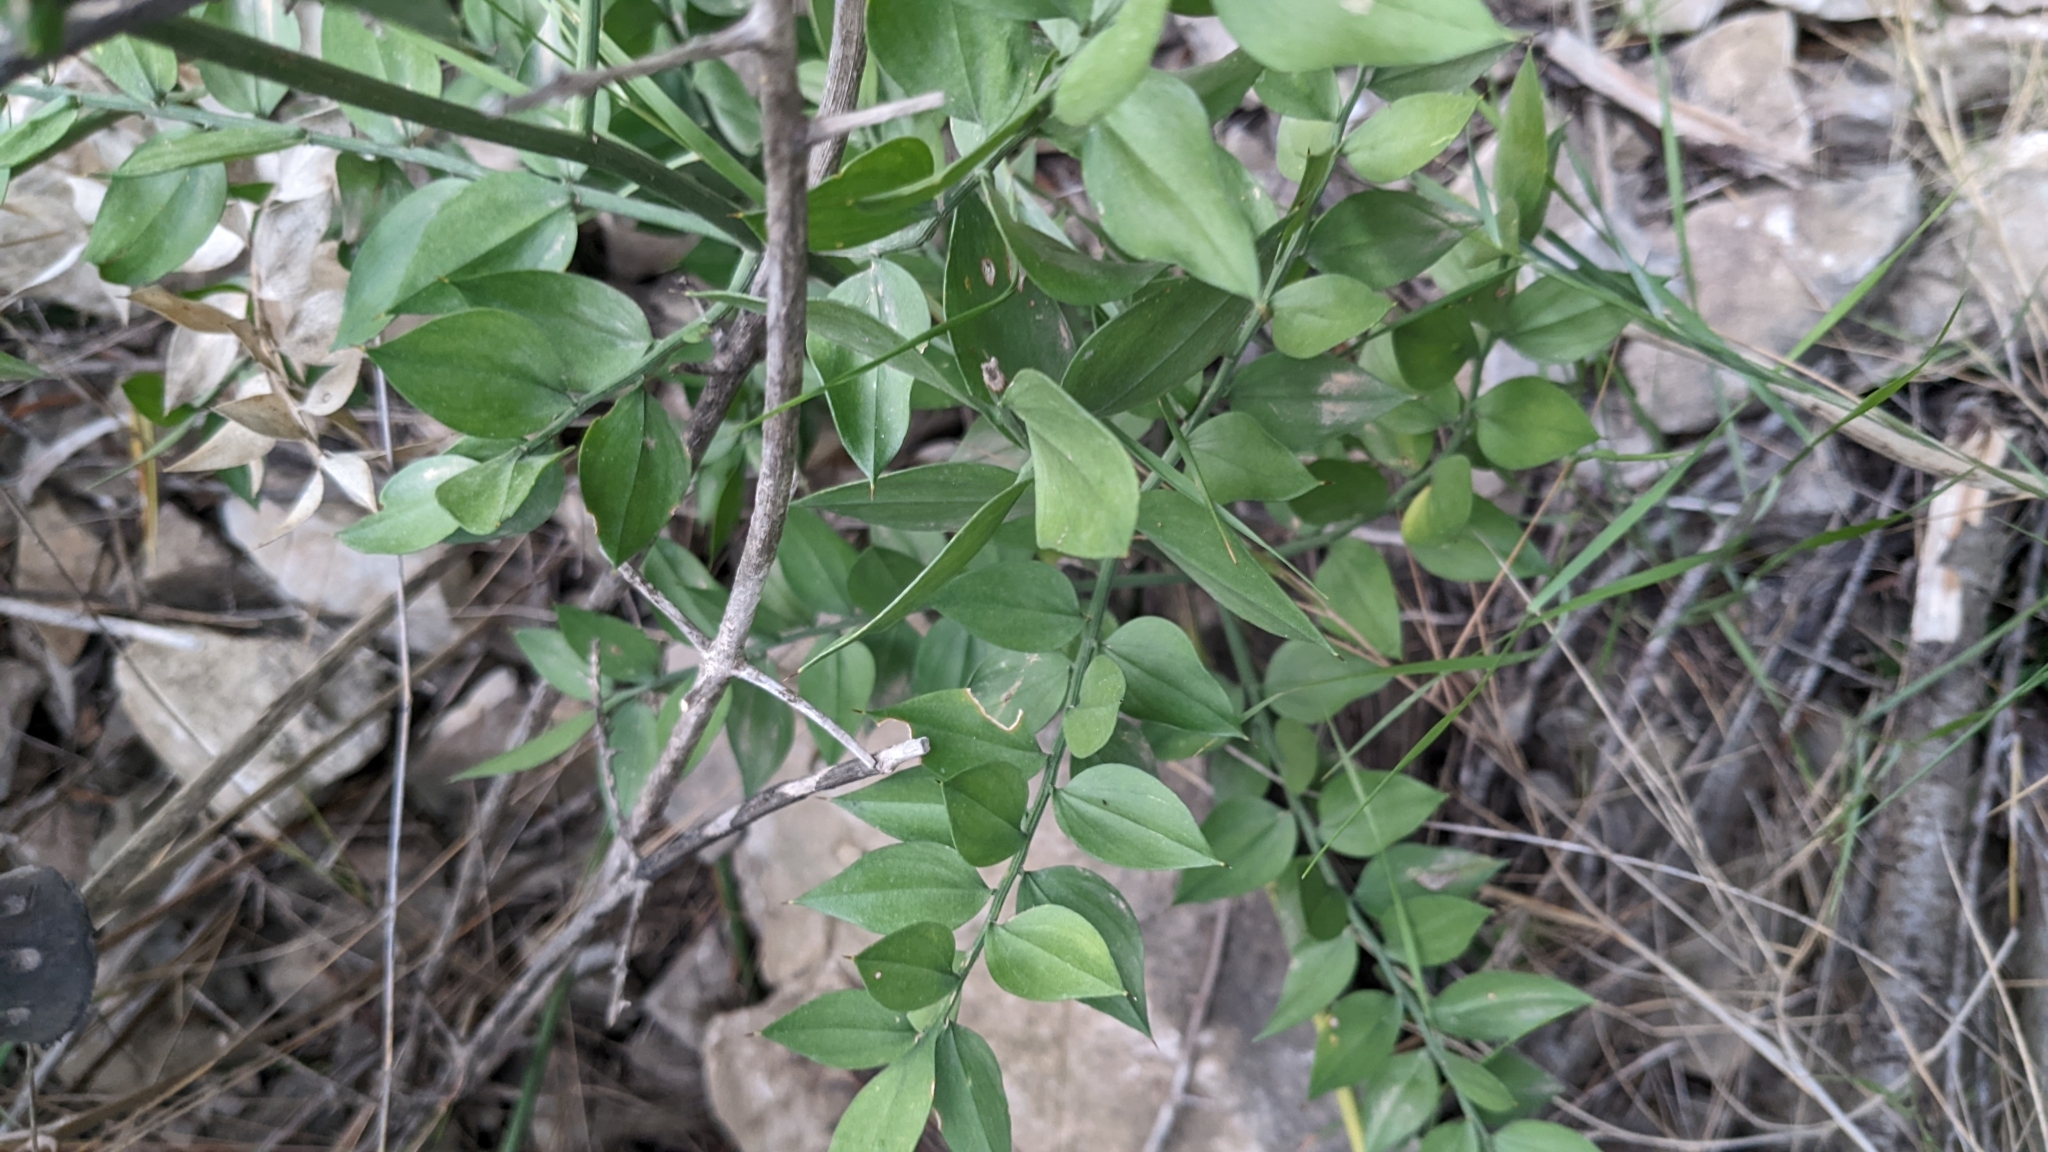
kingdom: Plantae
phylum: Tracheophyta
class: Liliopsida
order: Asparagales
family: Asparagaceae
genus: Ruscus
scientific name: Ruscus aculeatus
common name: Butcher's-broom
